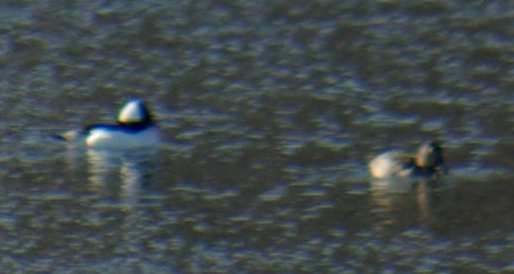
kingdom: Animalia
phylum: Chordata
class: Aves
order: Anseriformes
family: Anatidae
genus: Bucephala
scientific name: Bucephala albeola
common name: Bufflehead
